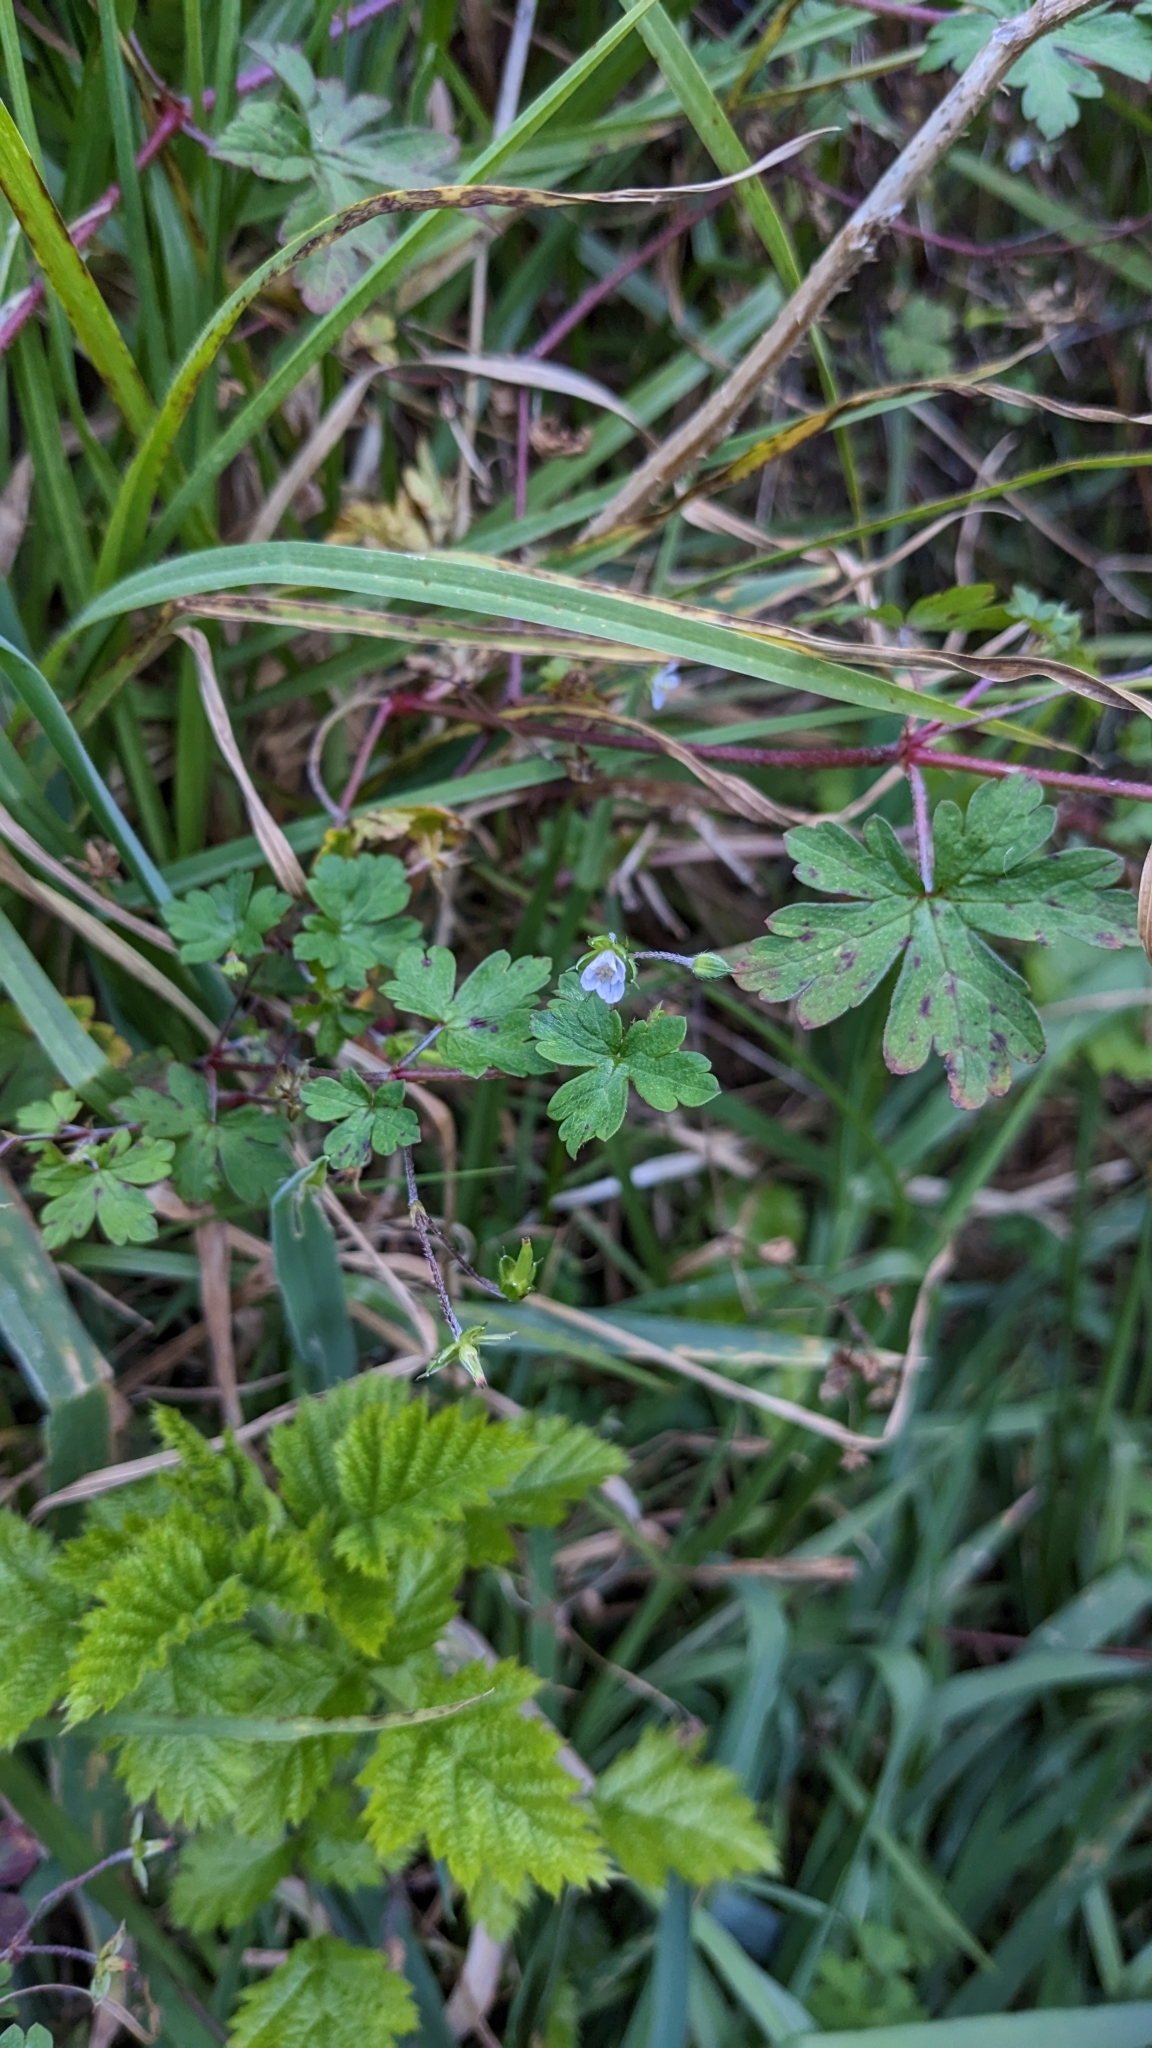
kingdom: Plantae
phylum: Tracheophyta
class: Magnoliopsida
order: Geraniales
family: Geraniaceae
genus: Geranium
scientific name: Geranium homeanum
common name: Australasian geranium
